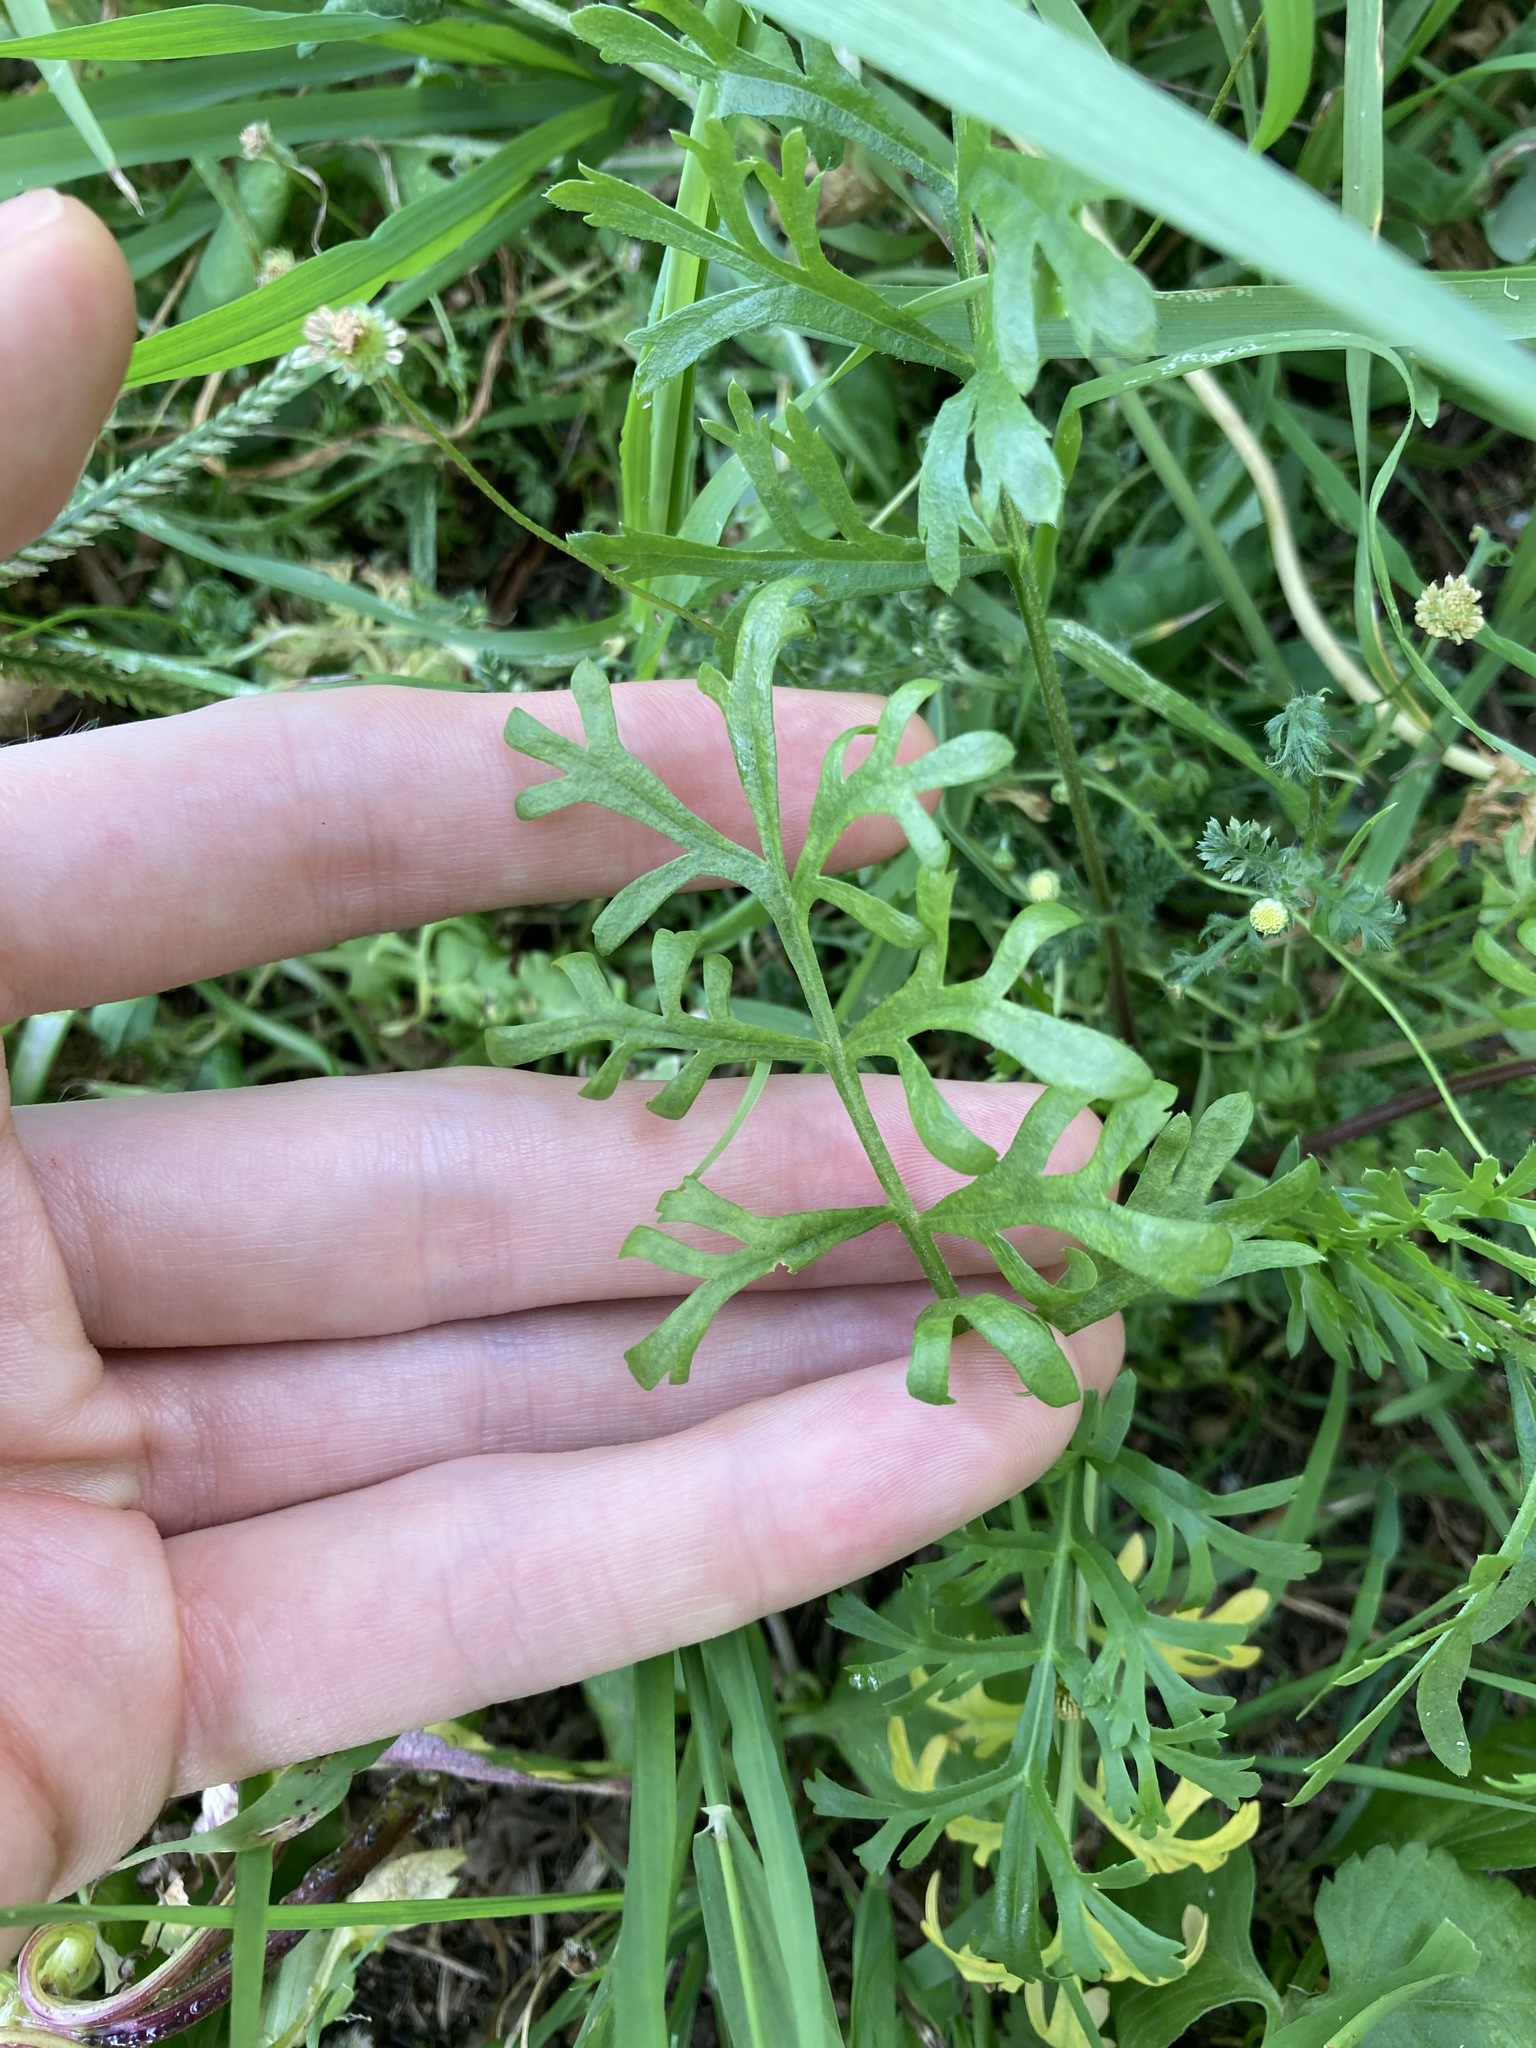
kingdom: Plantae
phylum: Tracheophyta
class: Magnoliopsida
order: Brassicales
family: Brassicaceae
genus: Lepidium
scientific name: Lepidium bonariense
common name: Argentine pepperwort
